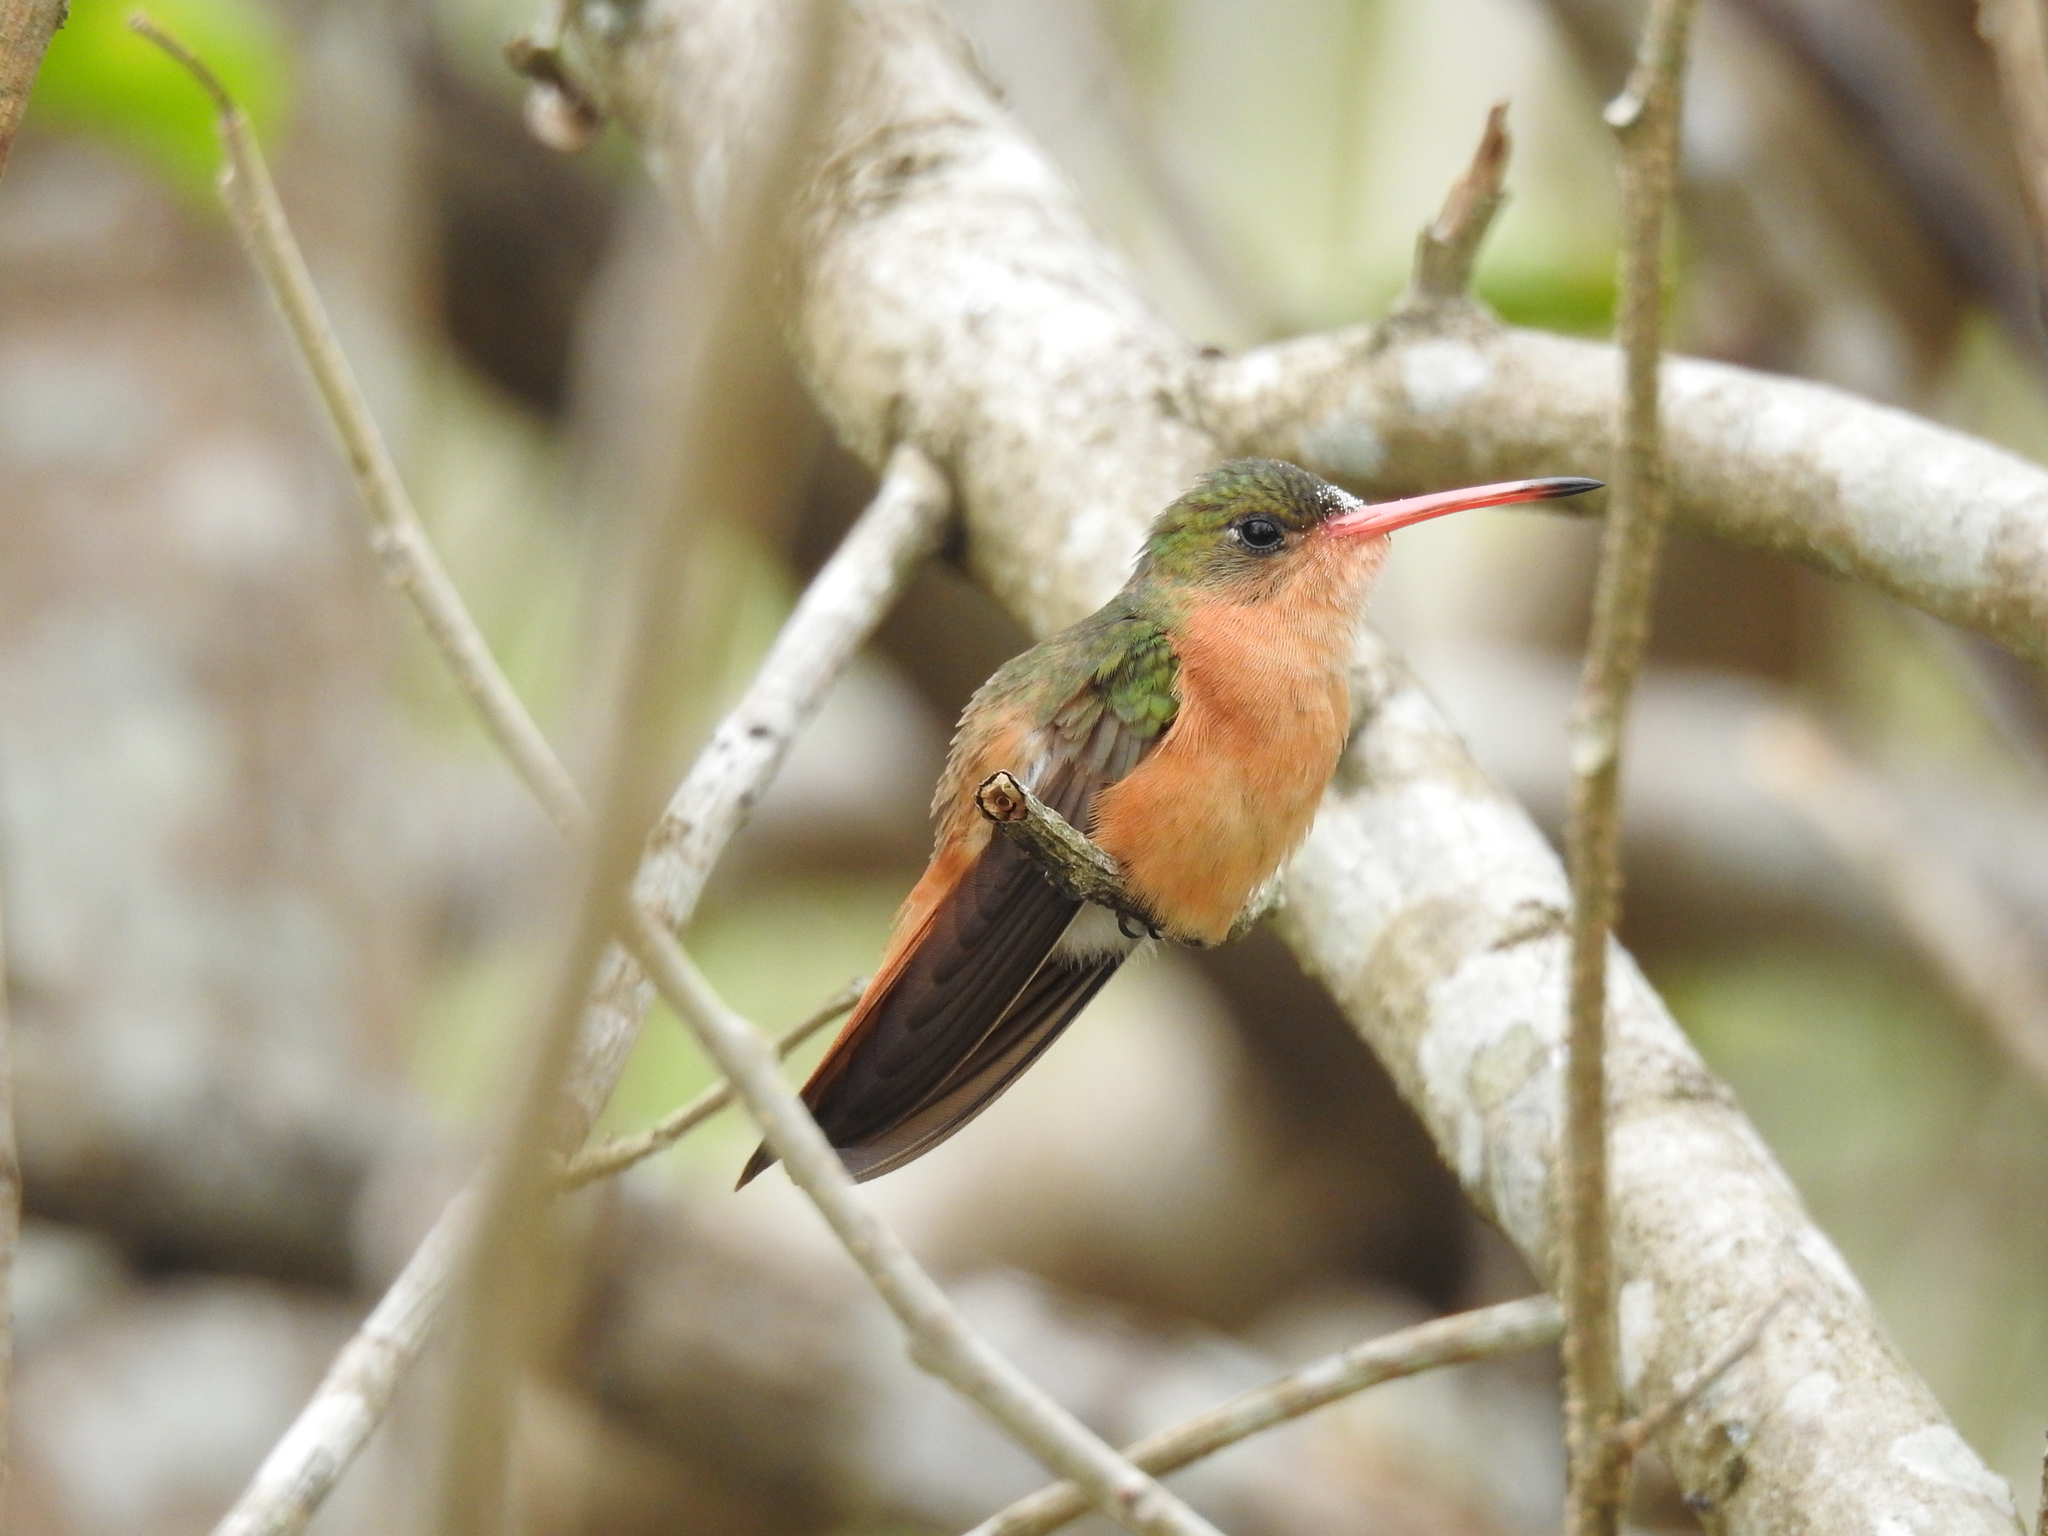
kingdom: Animalia
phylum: Chordata
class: Aves
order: Apodiformes
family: Trochilidae
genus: Amazilia
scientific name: Amazilia rutila
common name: Cinnamon hummingbird
